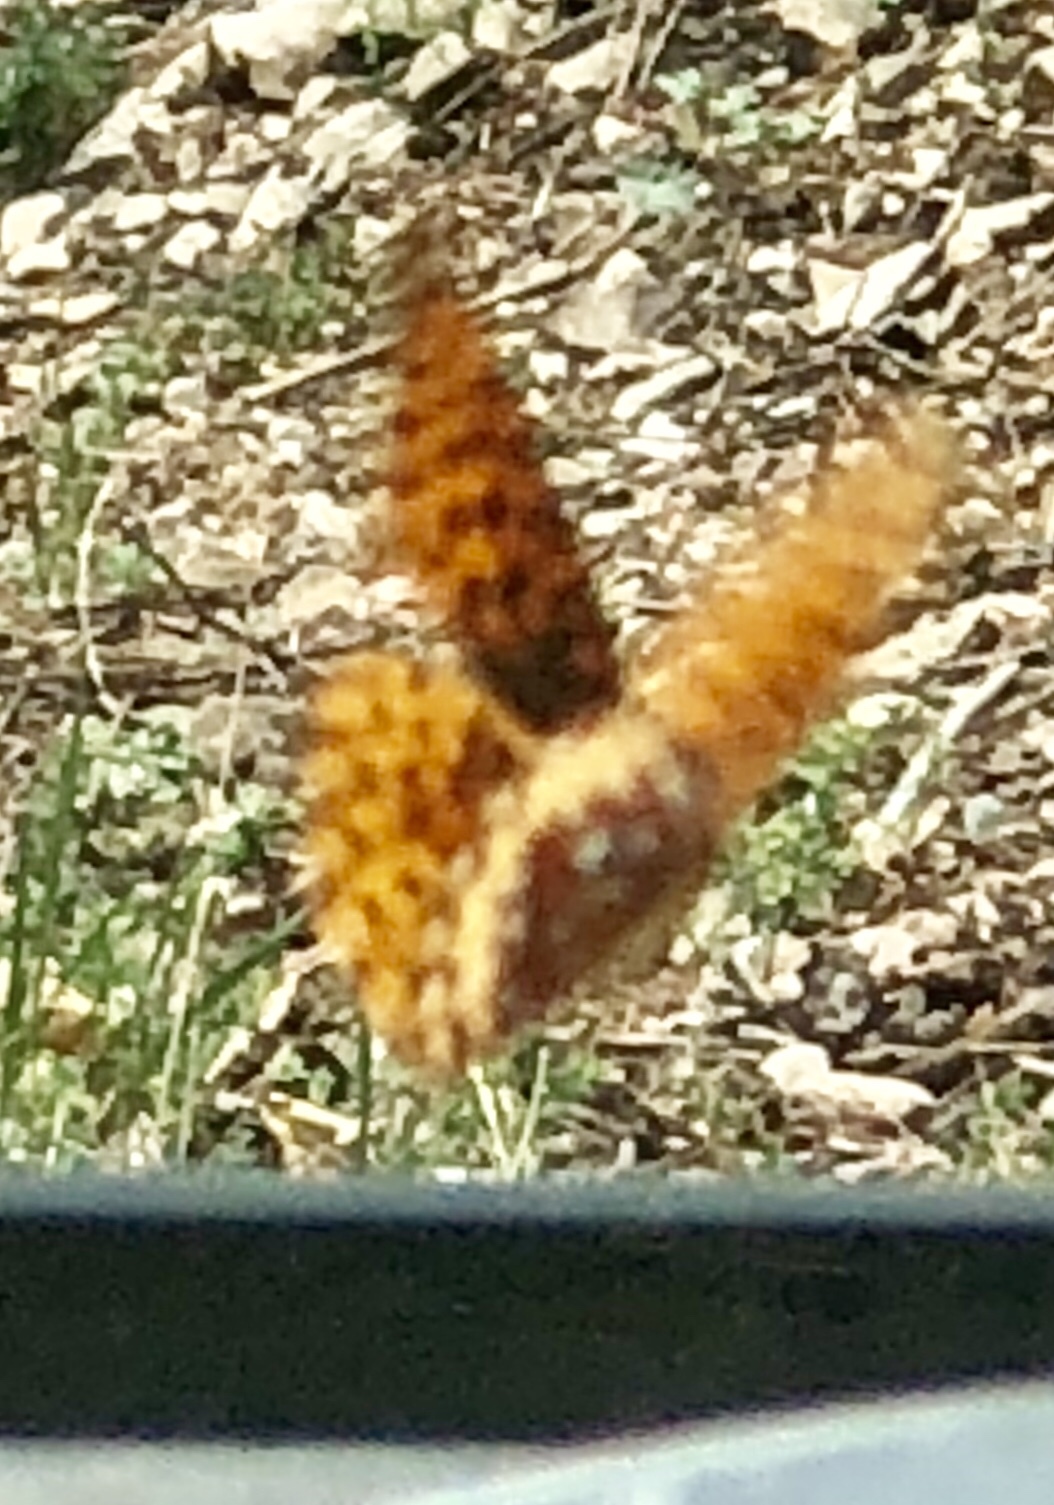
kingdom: Animalia
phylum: Arthropoda
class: Insecta
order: Lepidoptera
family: Nymphalidae
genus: Speyeria
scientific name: Speyeria atlantis
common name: Atlantis fritillary
